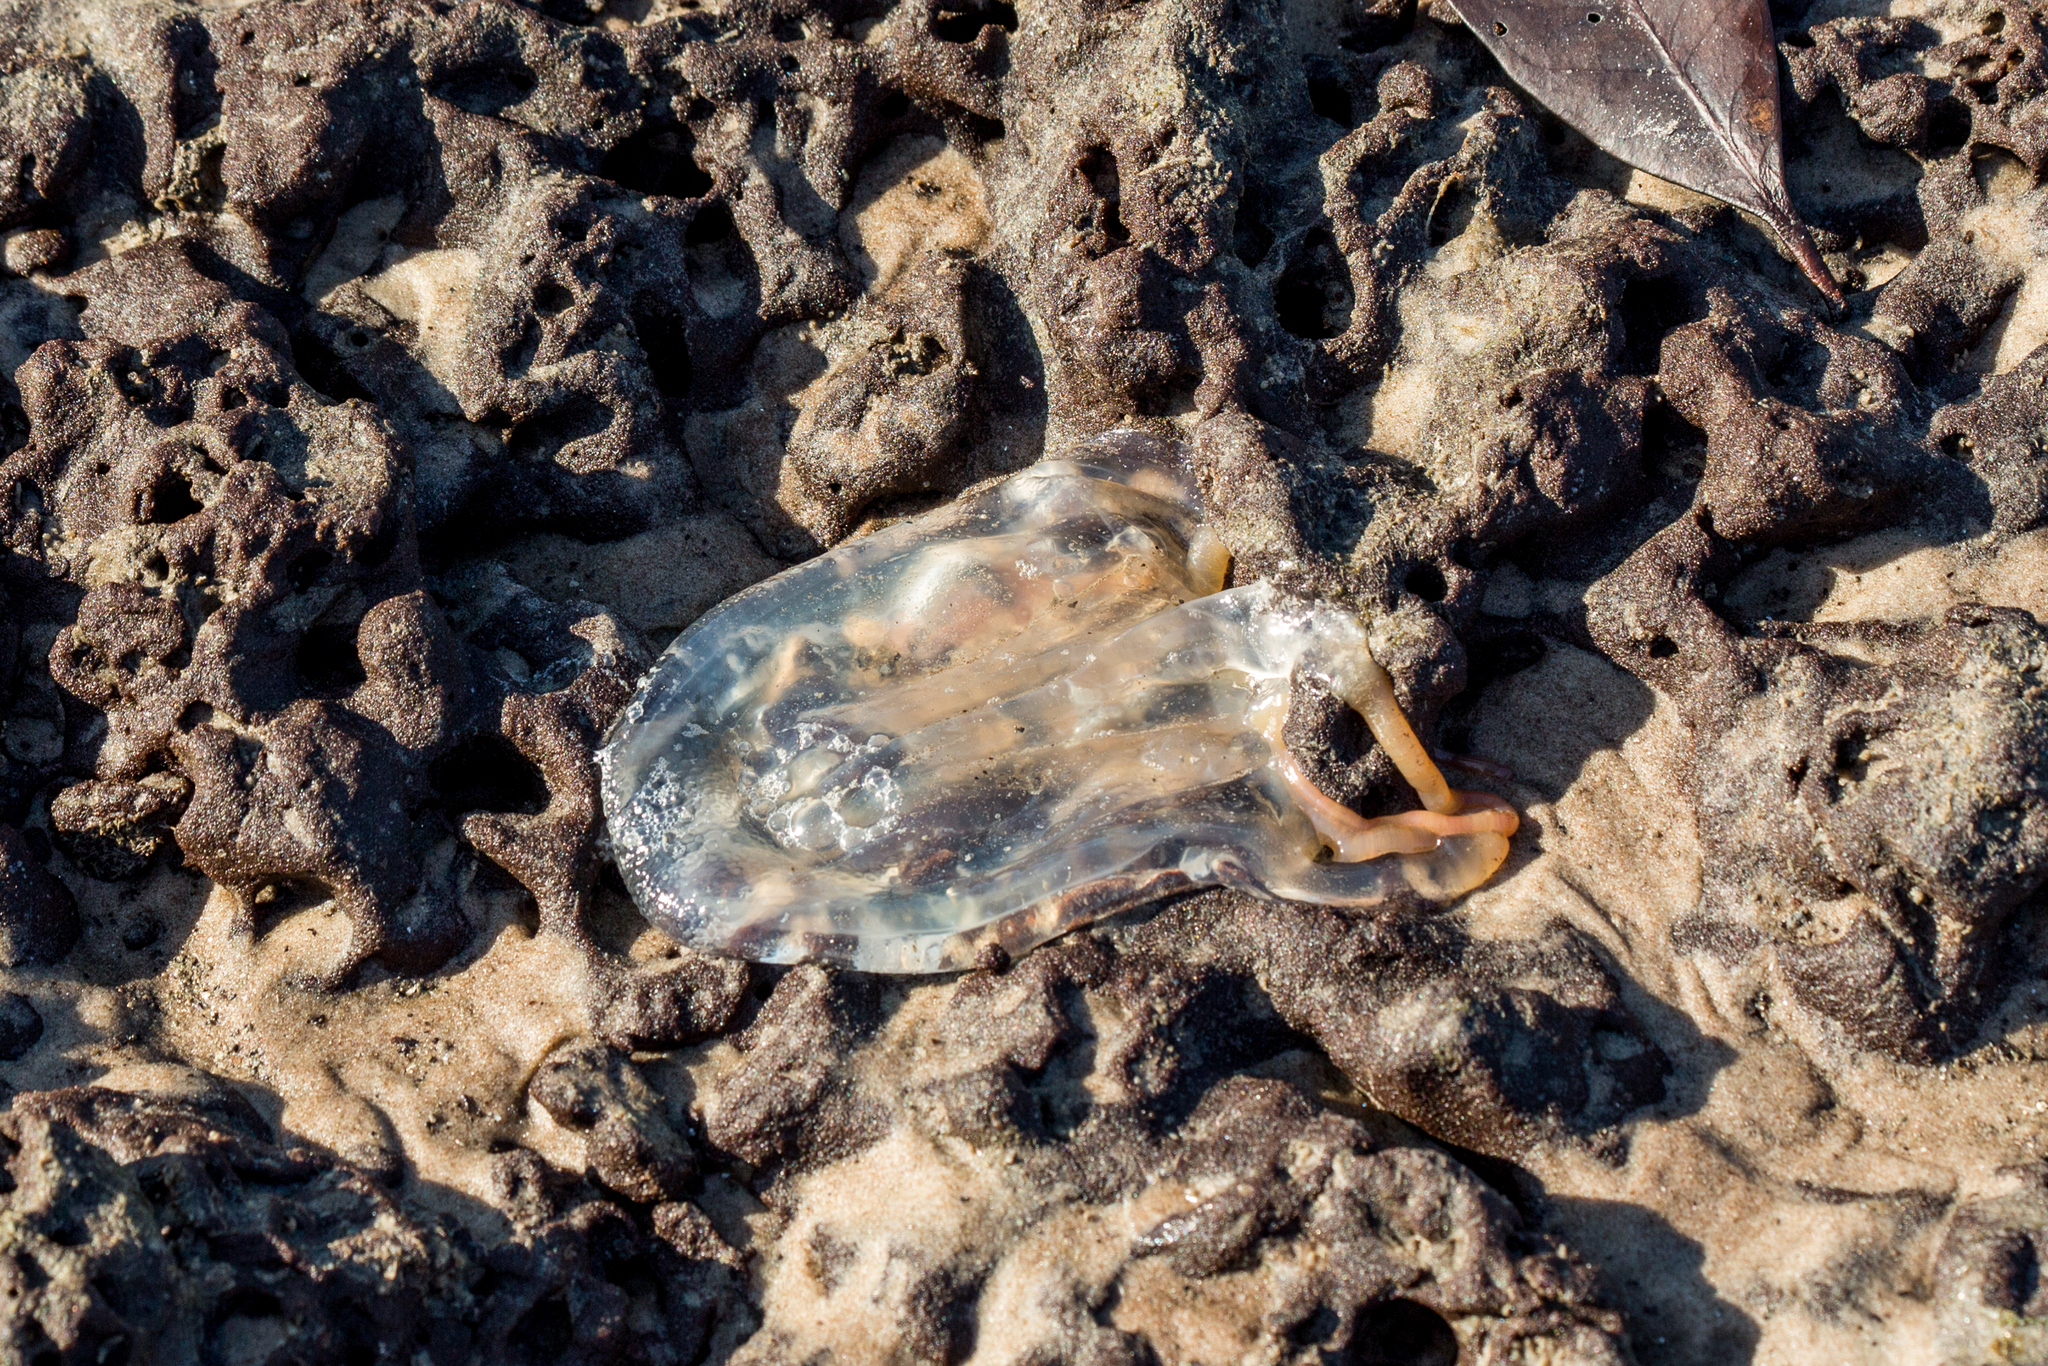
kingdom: Animalia
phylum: Cnidaria
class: Cubozoa
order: Carybdeida
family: Tamoyidae
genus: Tamoya
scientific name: Tamoya haplonema
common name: Box jelly
